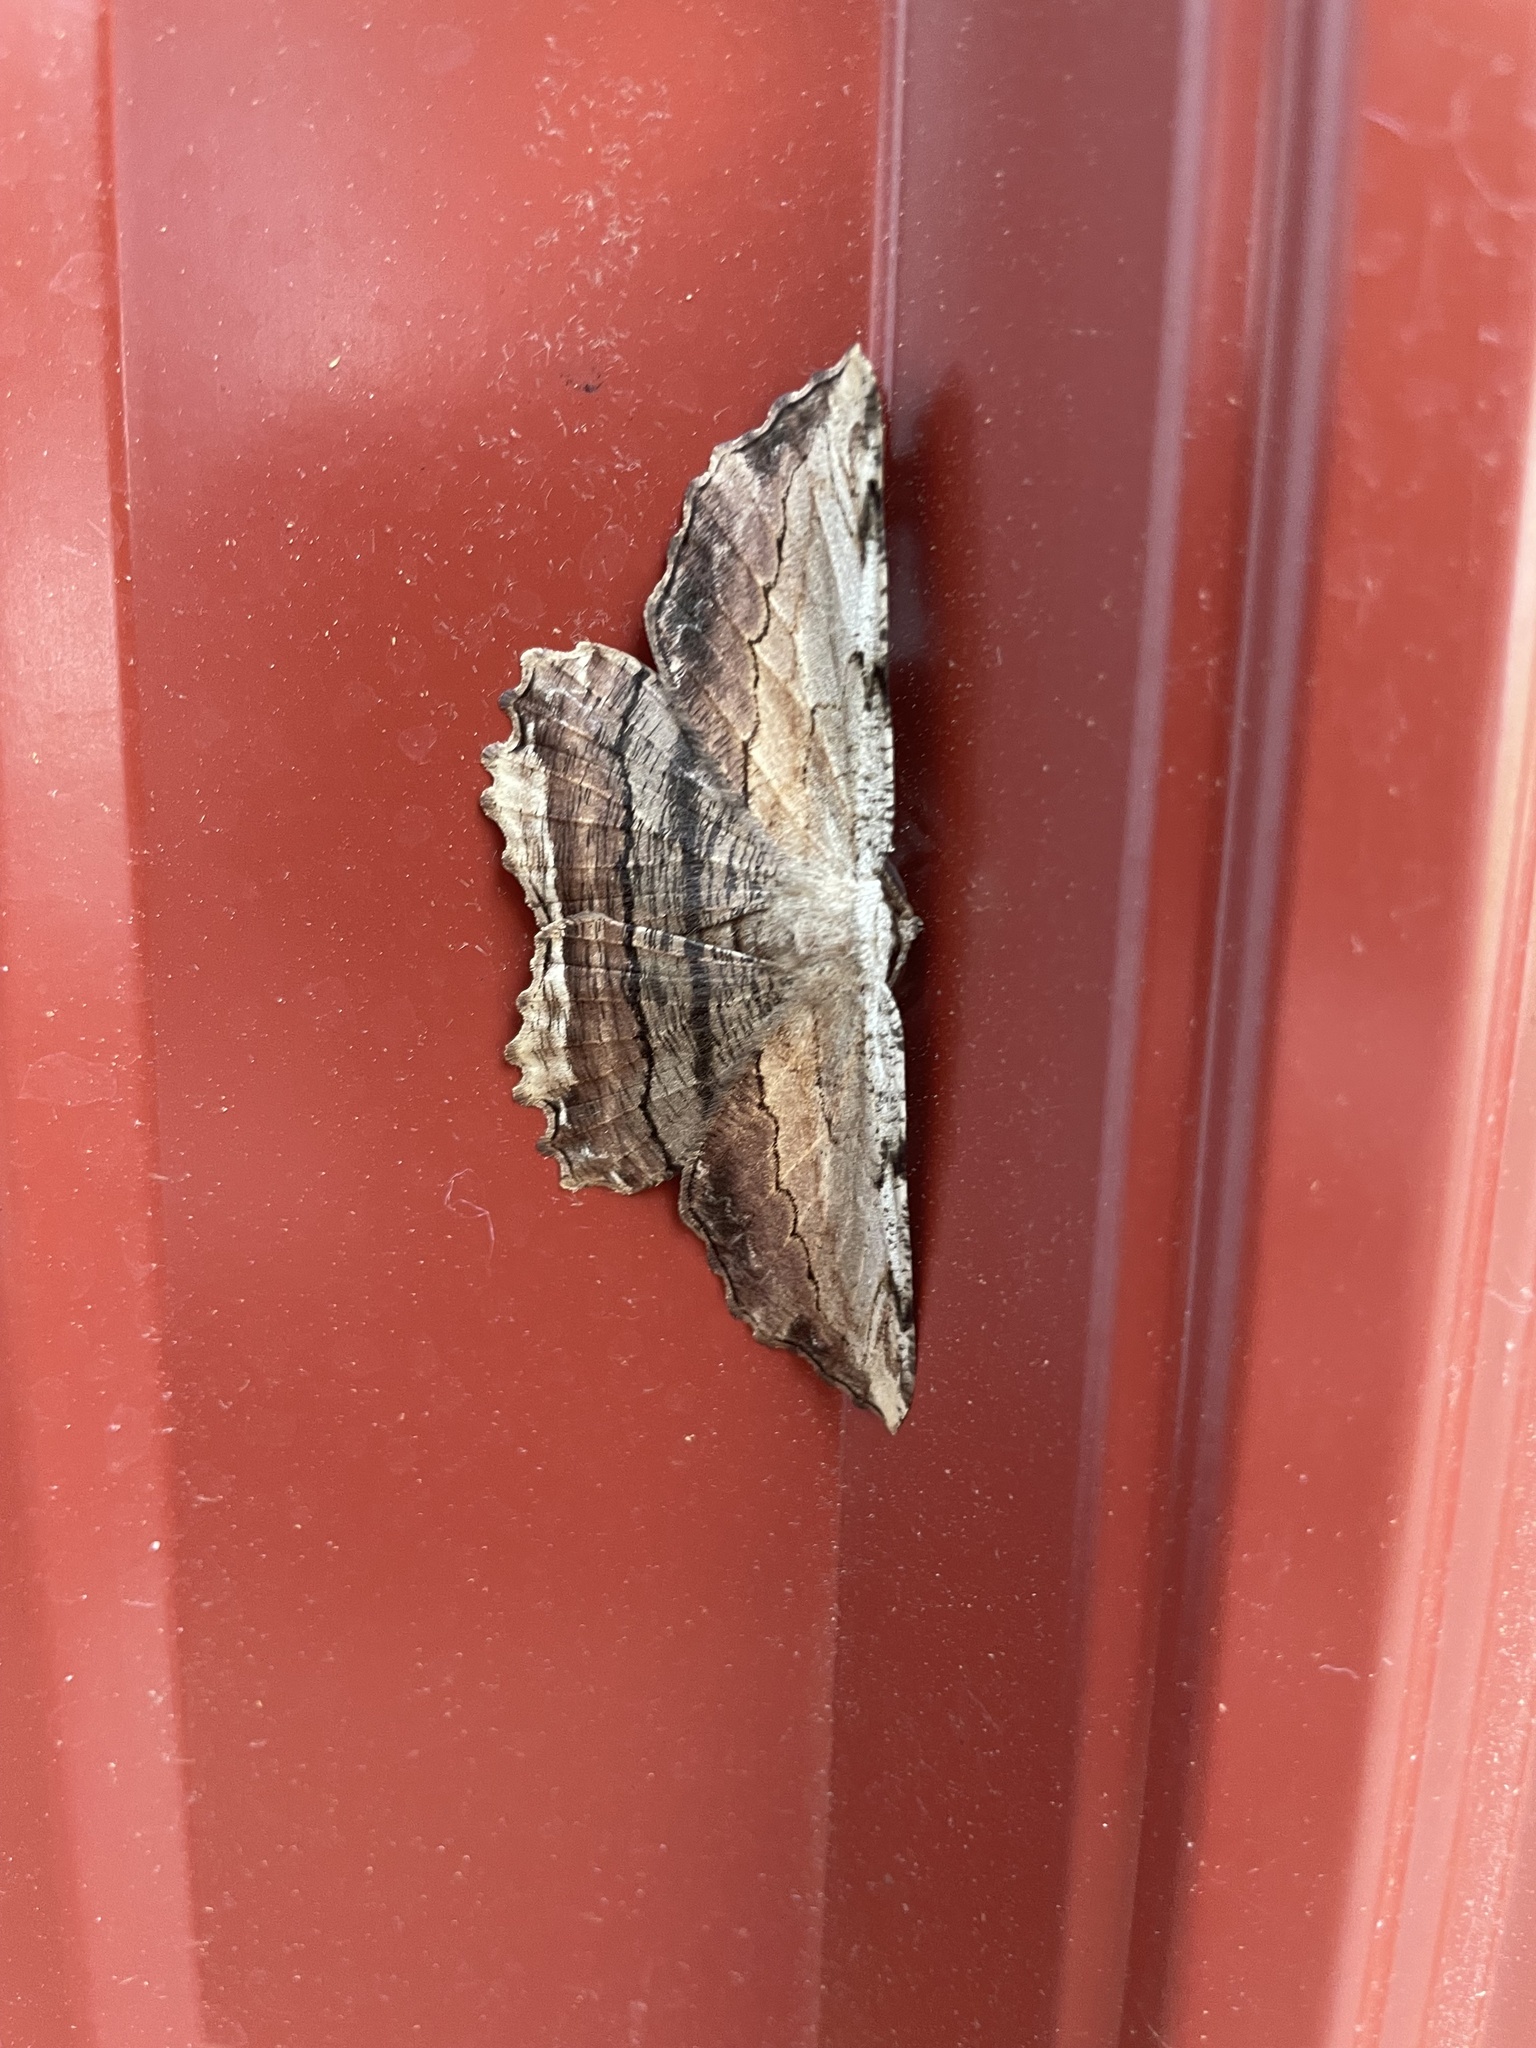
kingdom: Animalia
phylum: Arthropoda
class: Insecta
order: Lepidoptera
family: Geometridae
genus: Lytrosis
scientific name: Lytrosis unitaria
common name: Common lytrosis
